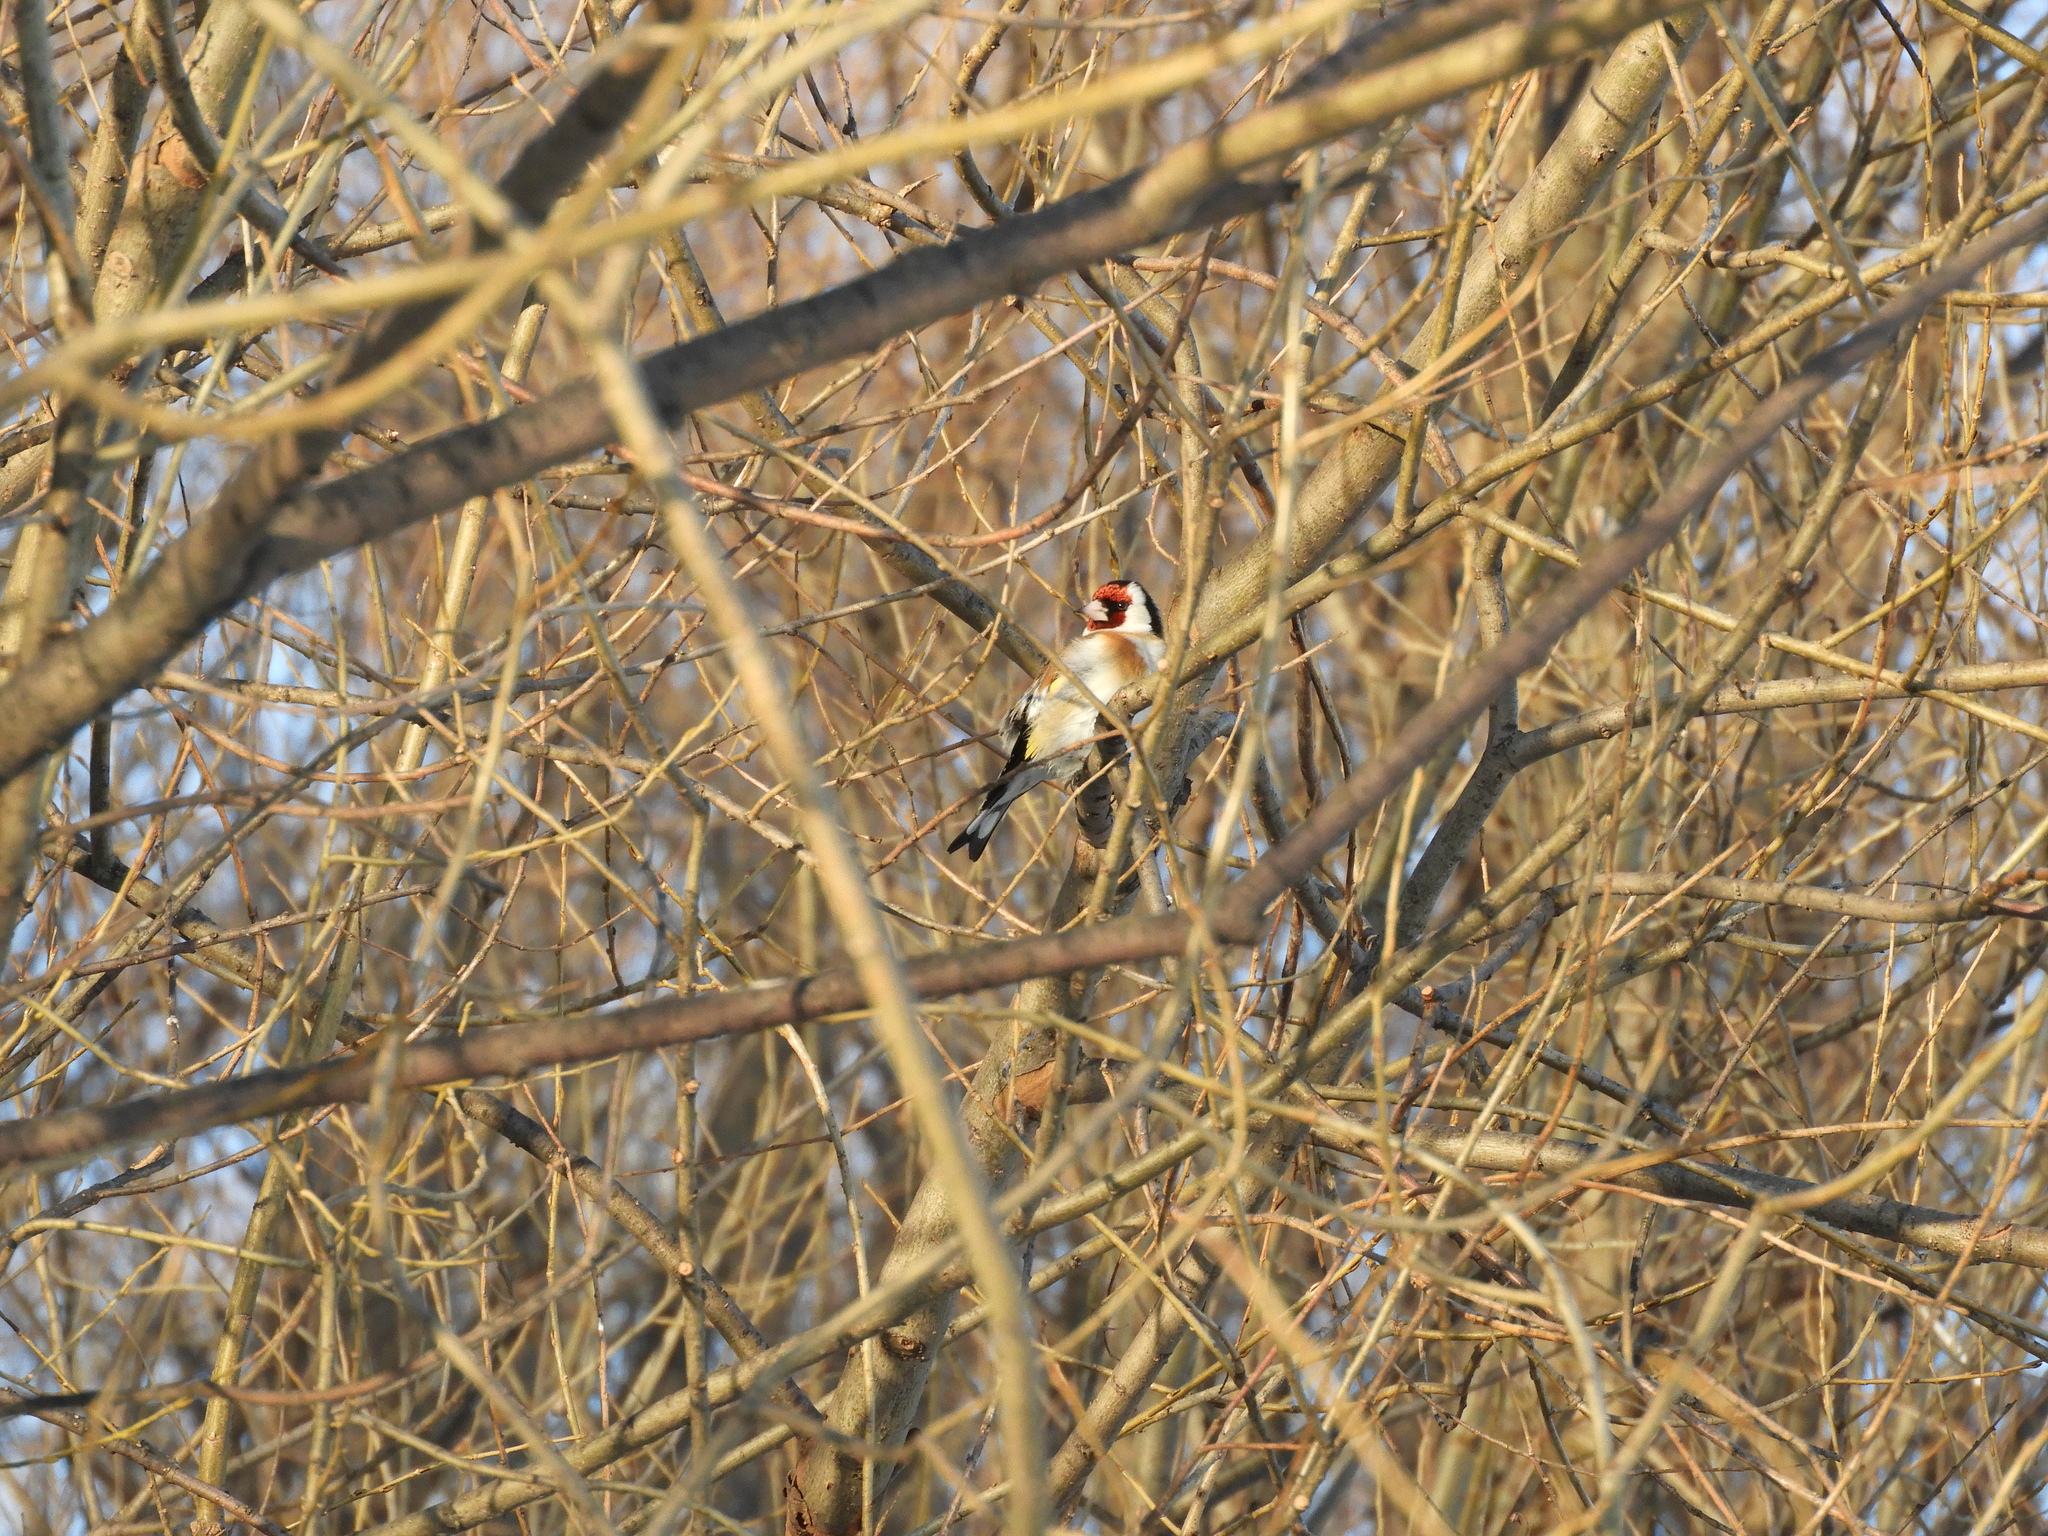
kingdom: Animalia
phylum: Chordata
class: Aves
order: Passeriformes
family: Fringillidae
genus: Carduelis
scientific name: Carduelis carduelis
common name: European goldfinch
